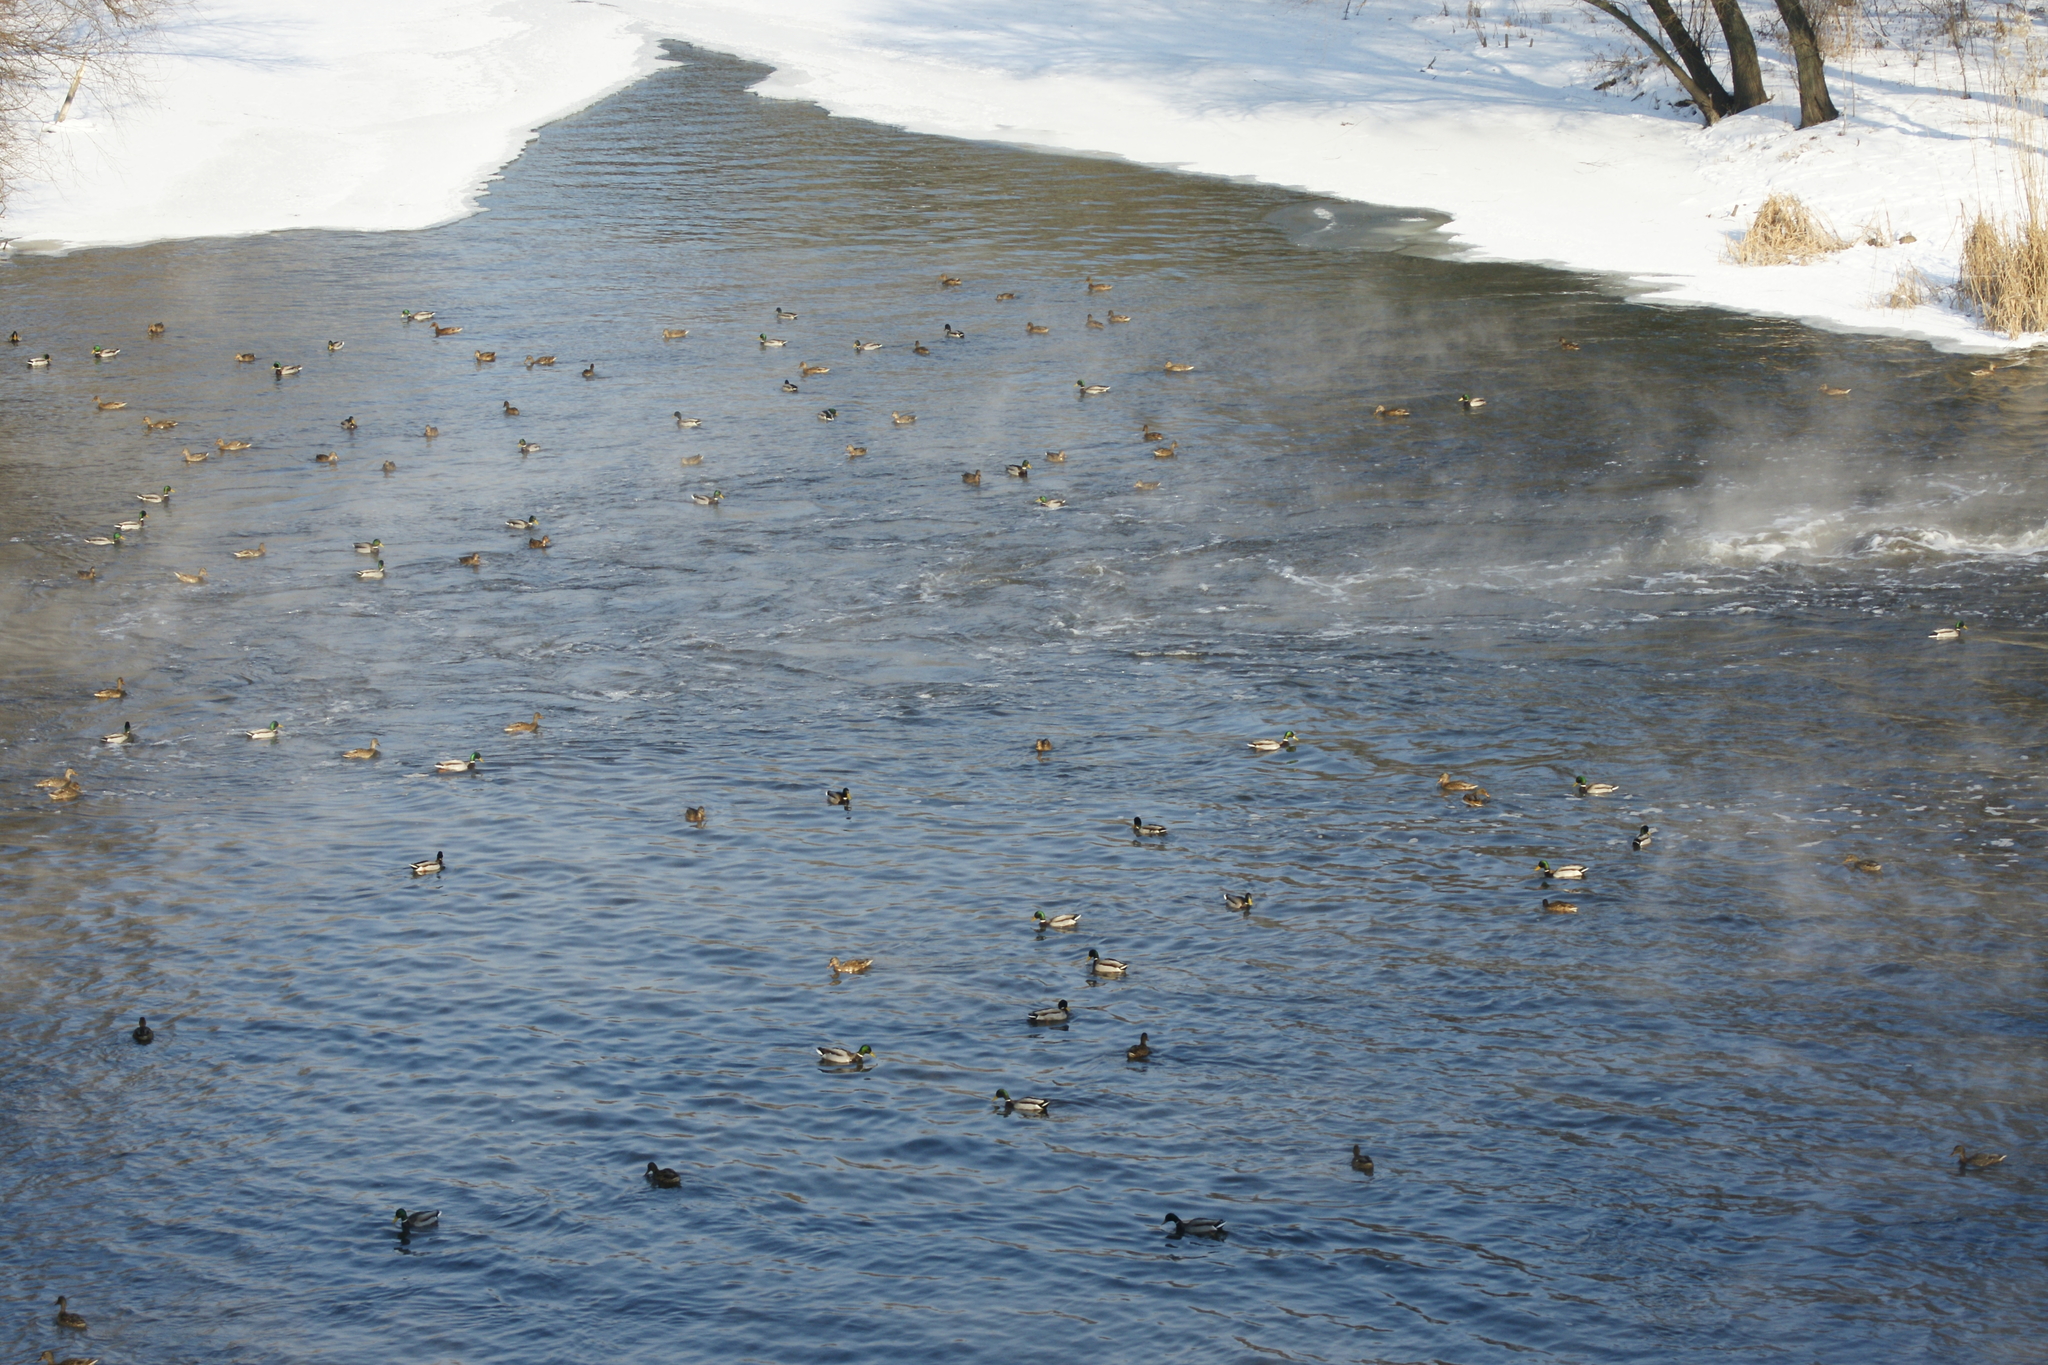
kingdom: Animalia
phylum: Chordata
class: Aves
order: Anseriformes
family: Anatidae
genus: Anas
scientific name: Anas platyrhynchos
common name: Mallard
